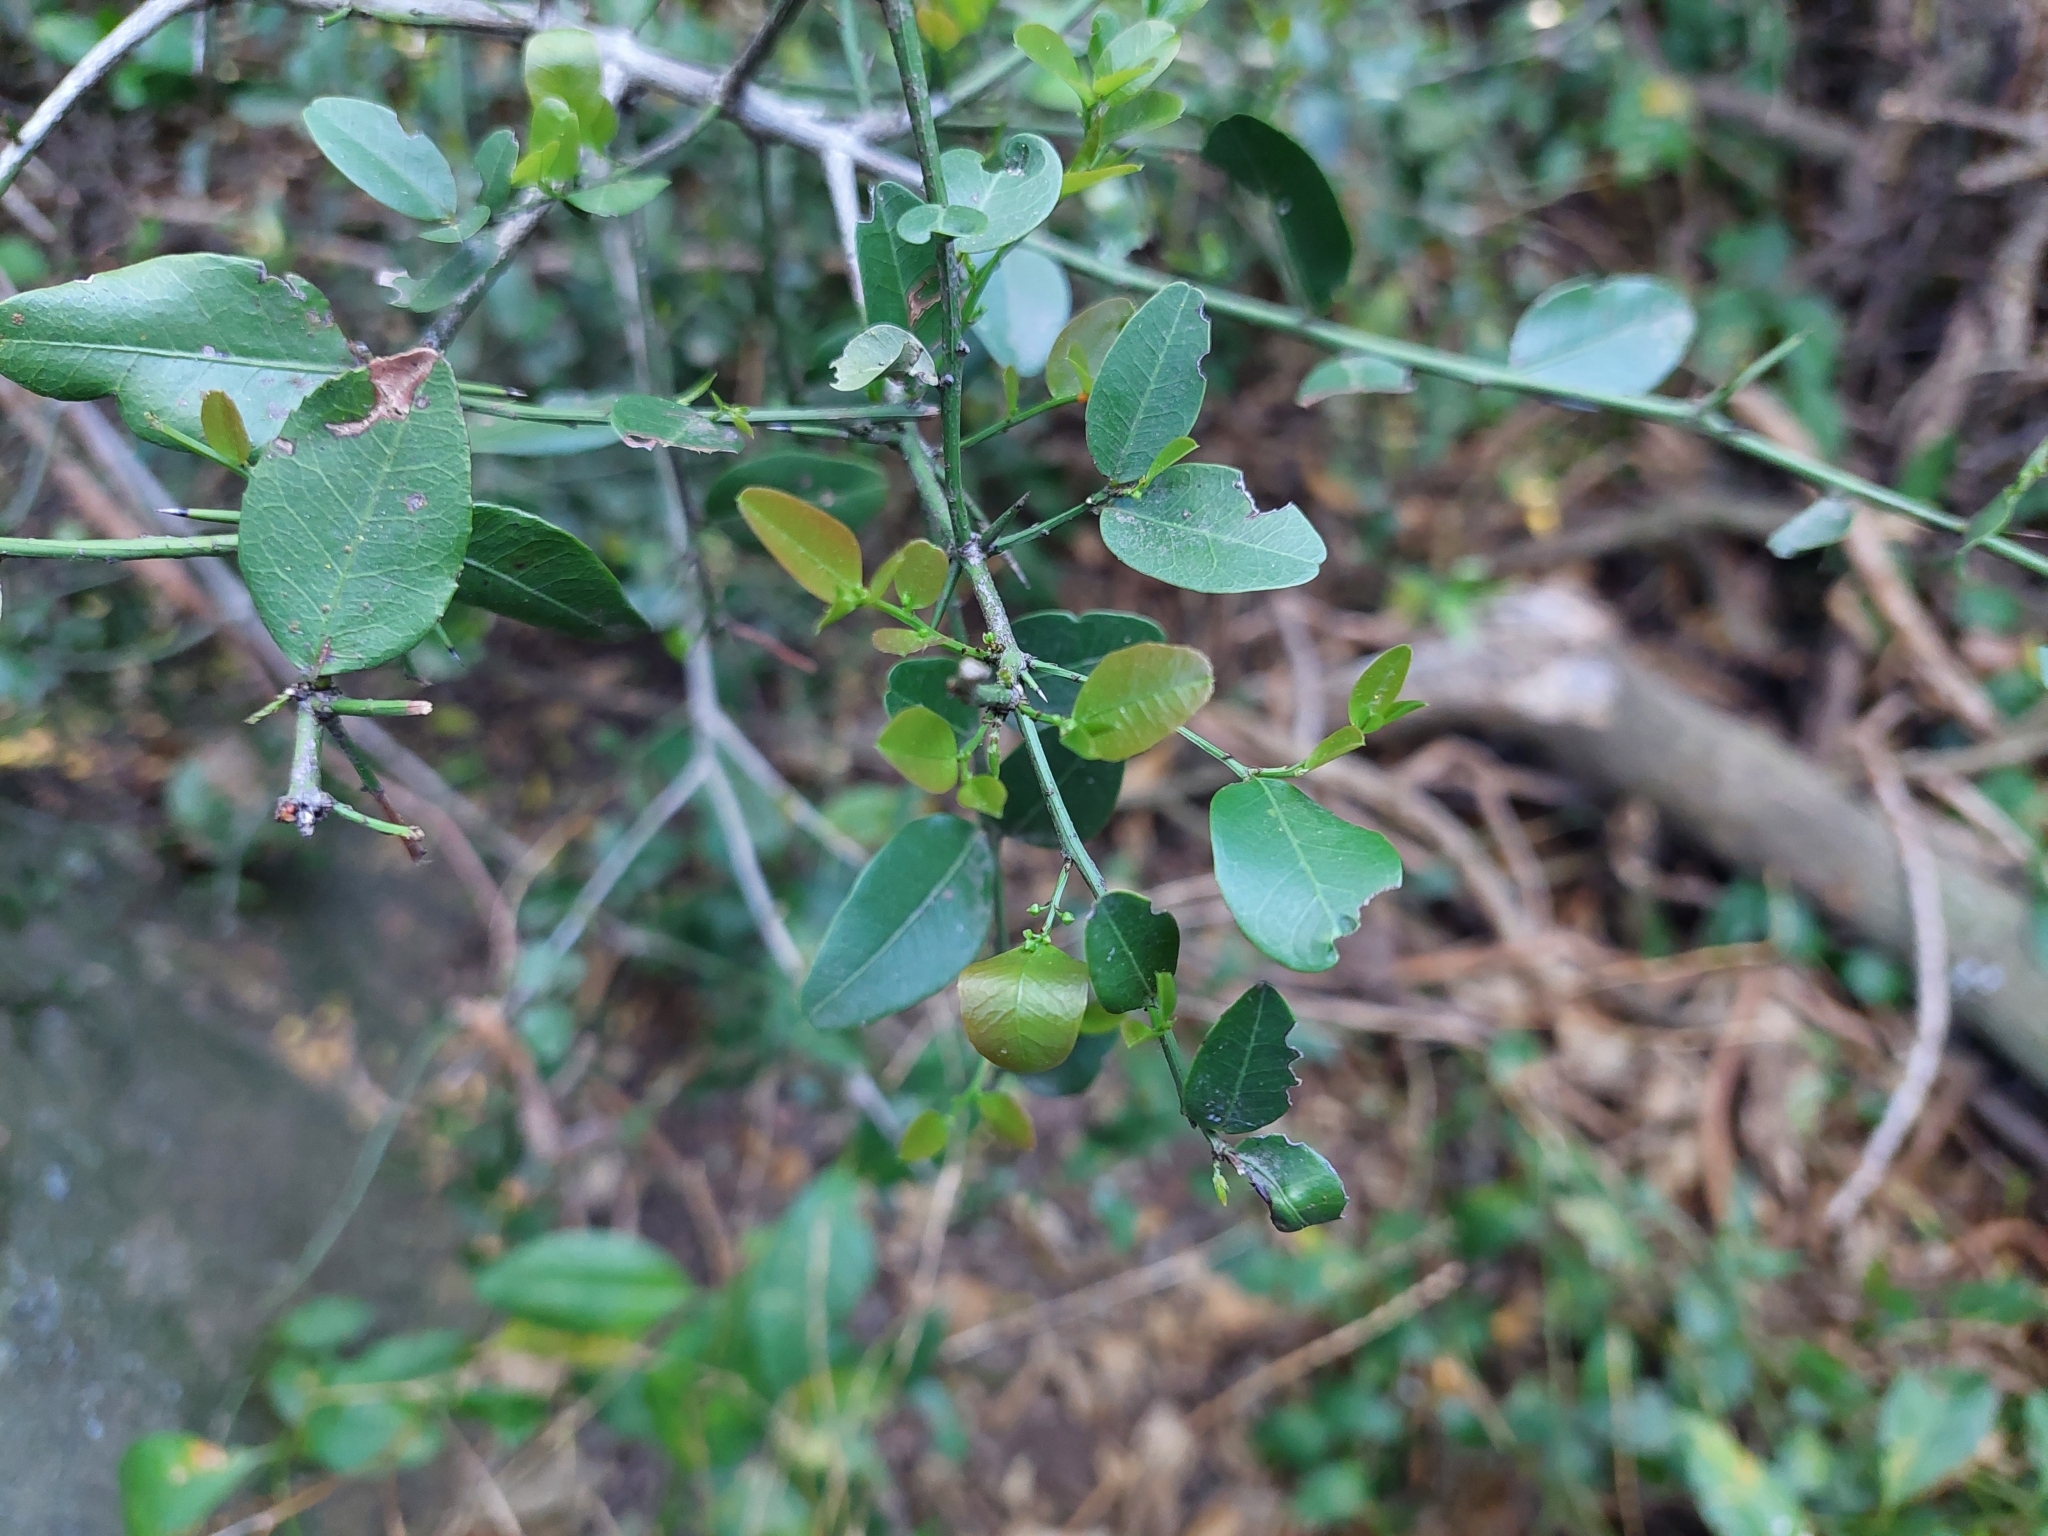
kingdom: Plantae
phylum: Tracheophyta
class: Magnoliopsida
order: Rosales
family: Rhamnaceae
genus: Scutia
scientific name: Scutia buxifolia
